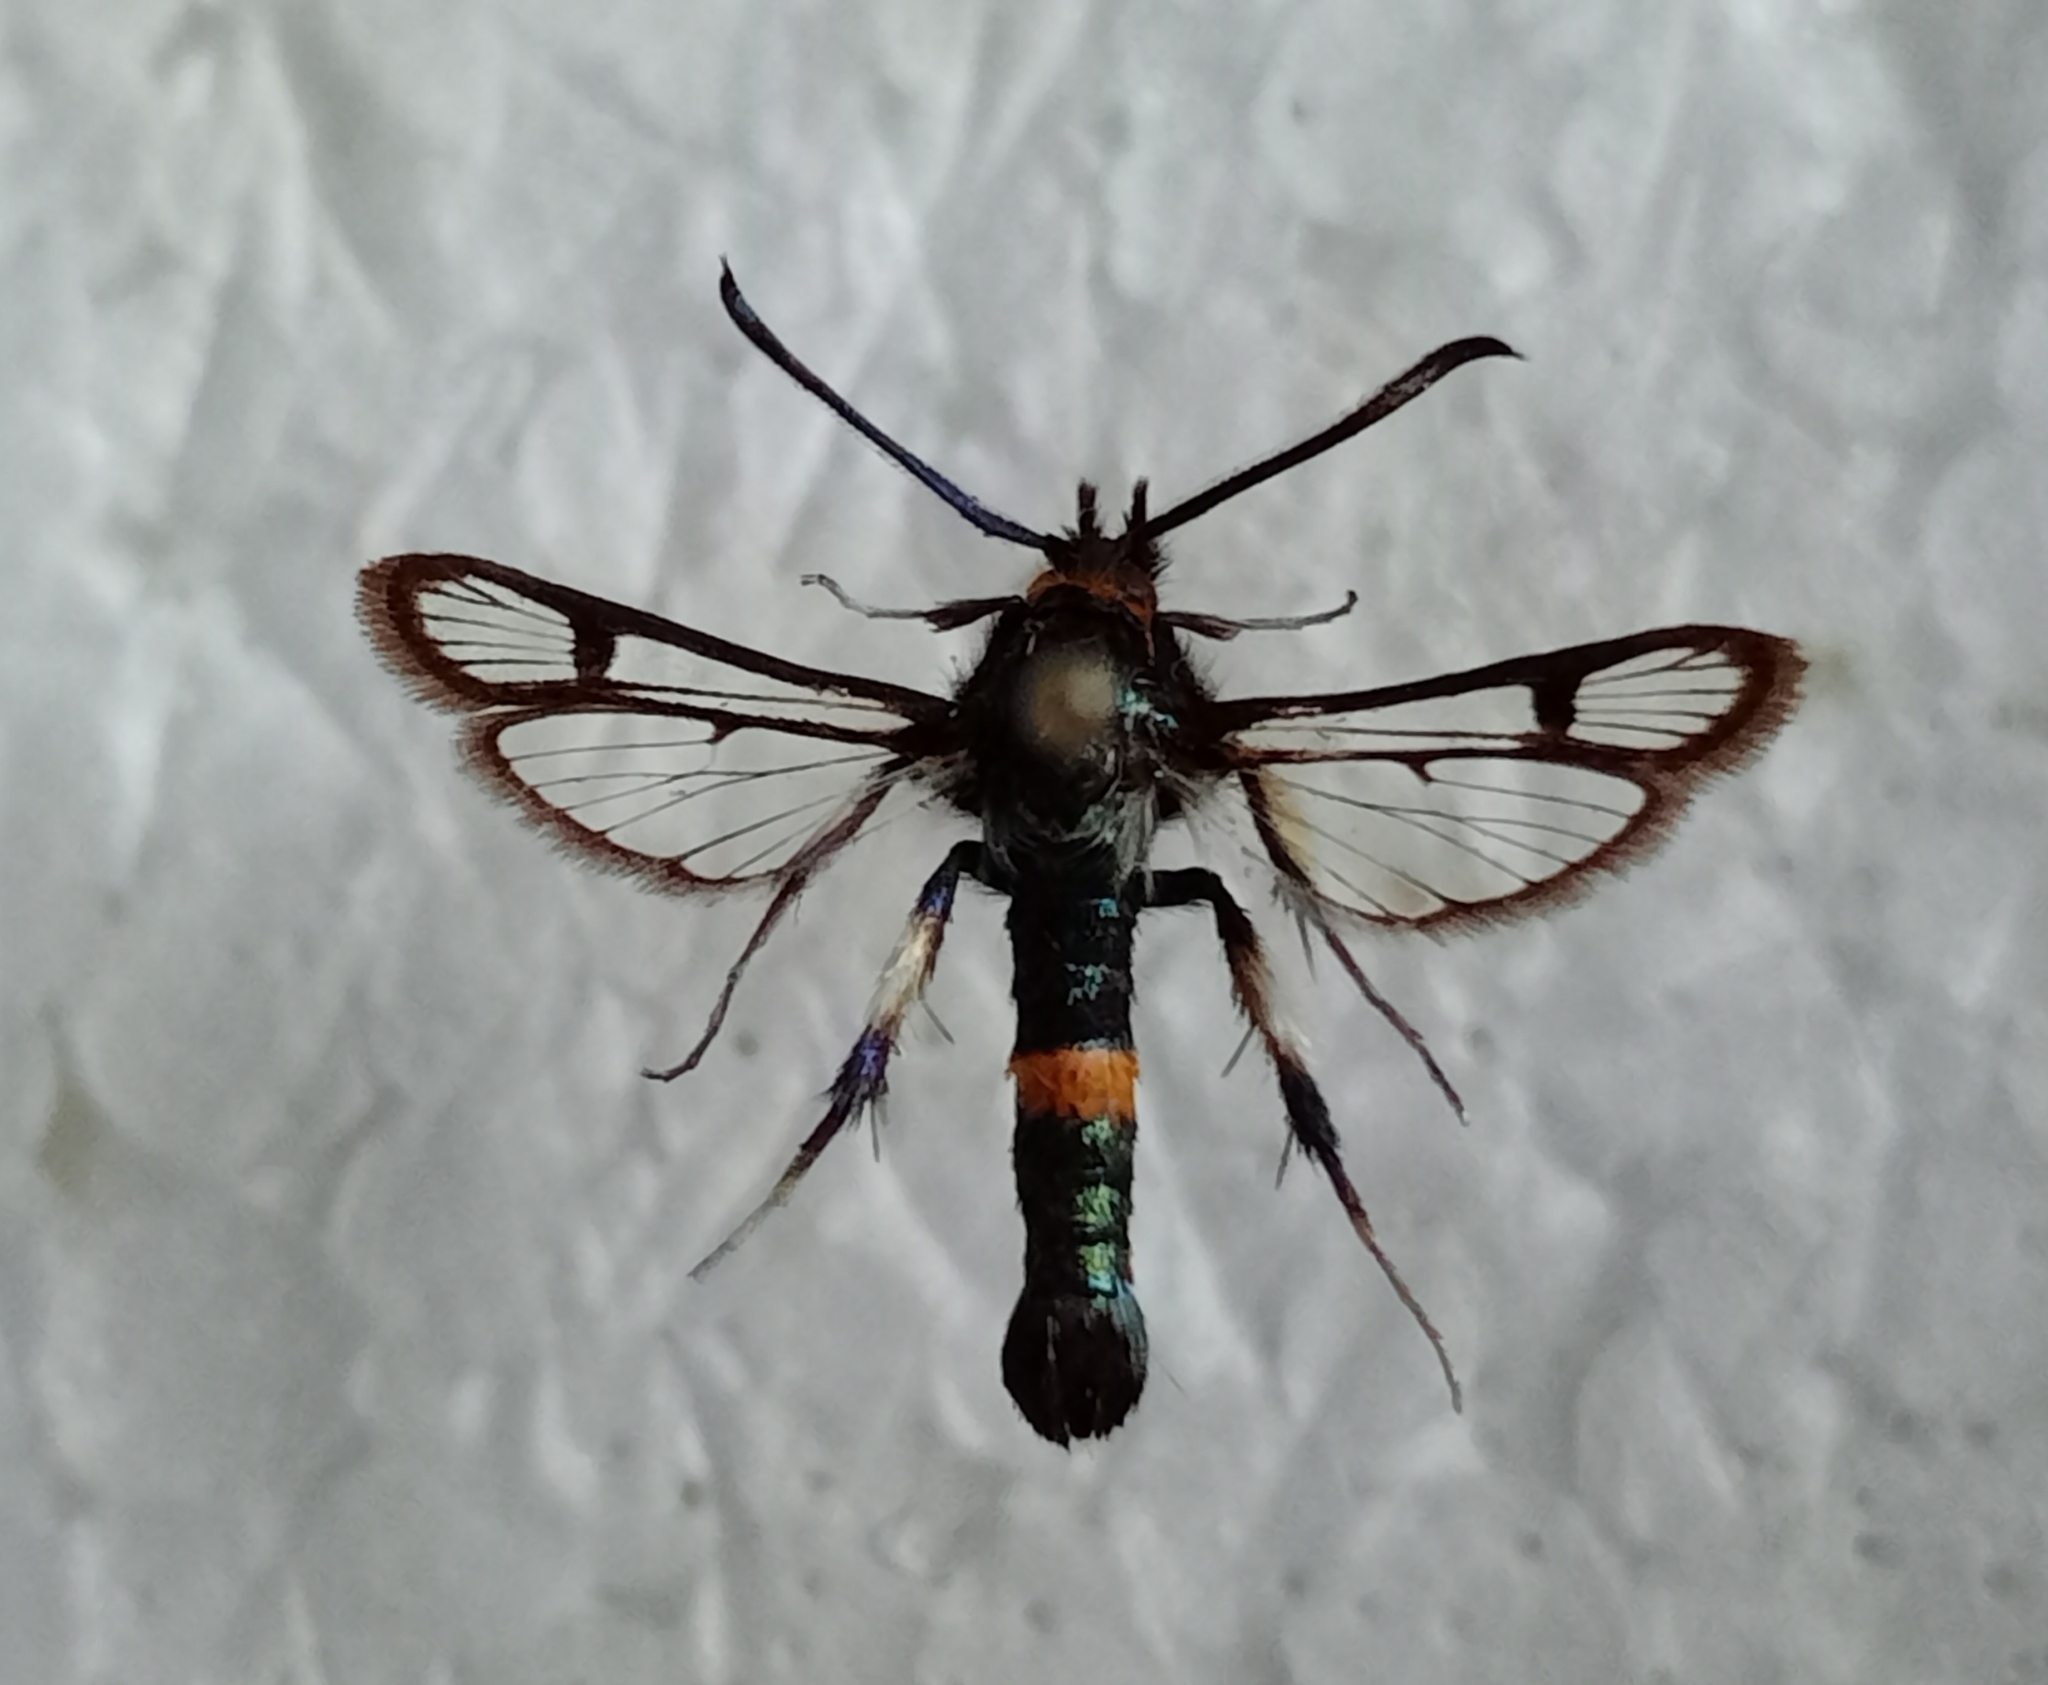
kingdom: Animalia
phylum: Arthropoda
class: Insecta
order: Lepidoptera
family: Sesiidae
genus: Pyropteron
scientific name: Pyropteron jordanicum
